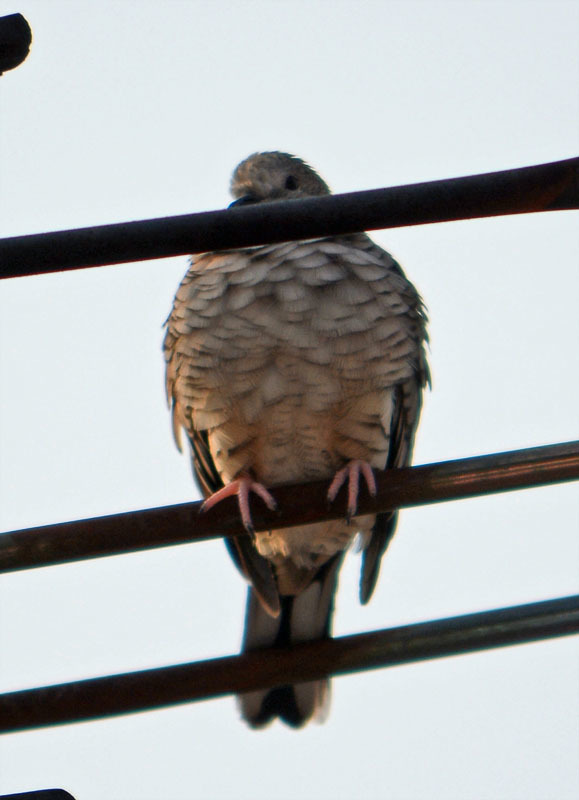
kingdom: Animalia
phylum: Chordata
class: Aves
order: Columbiformes
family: Columbidae
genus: Columbina
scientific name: Columbina inca
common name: Inca dove
